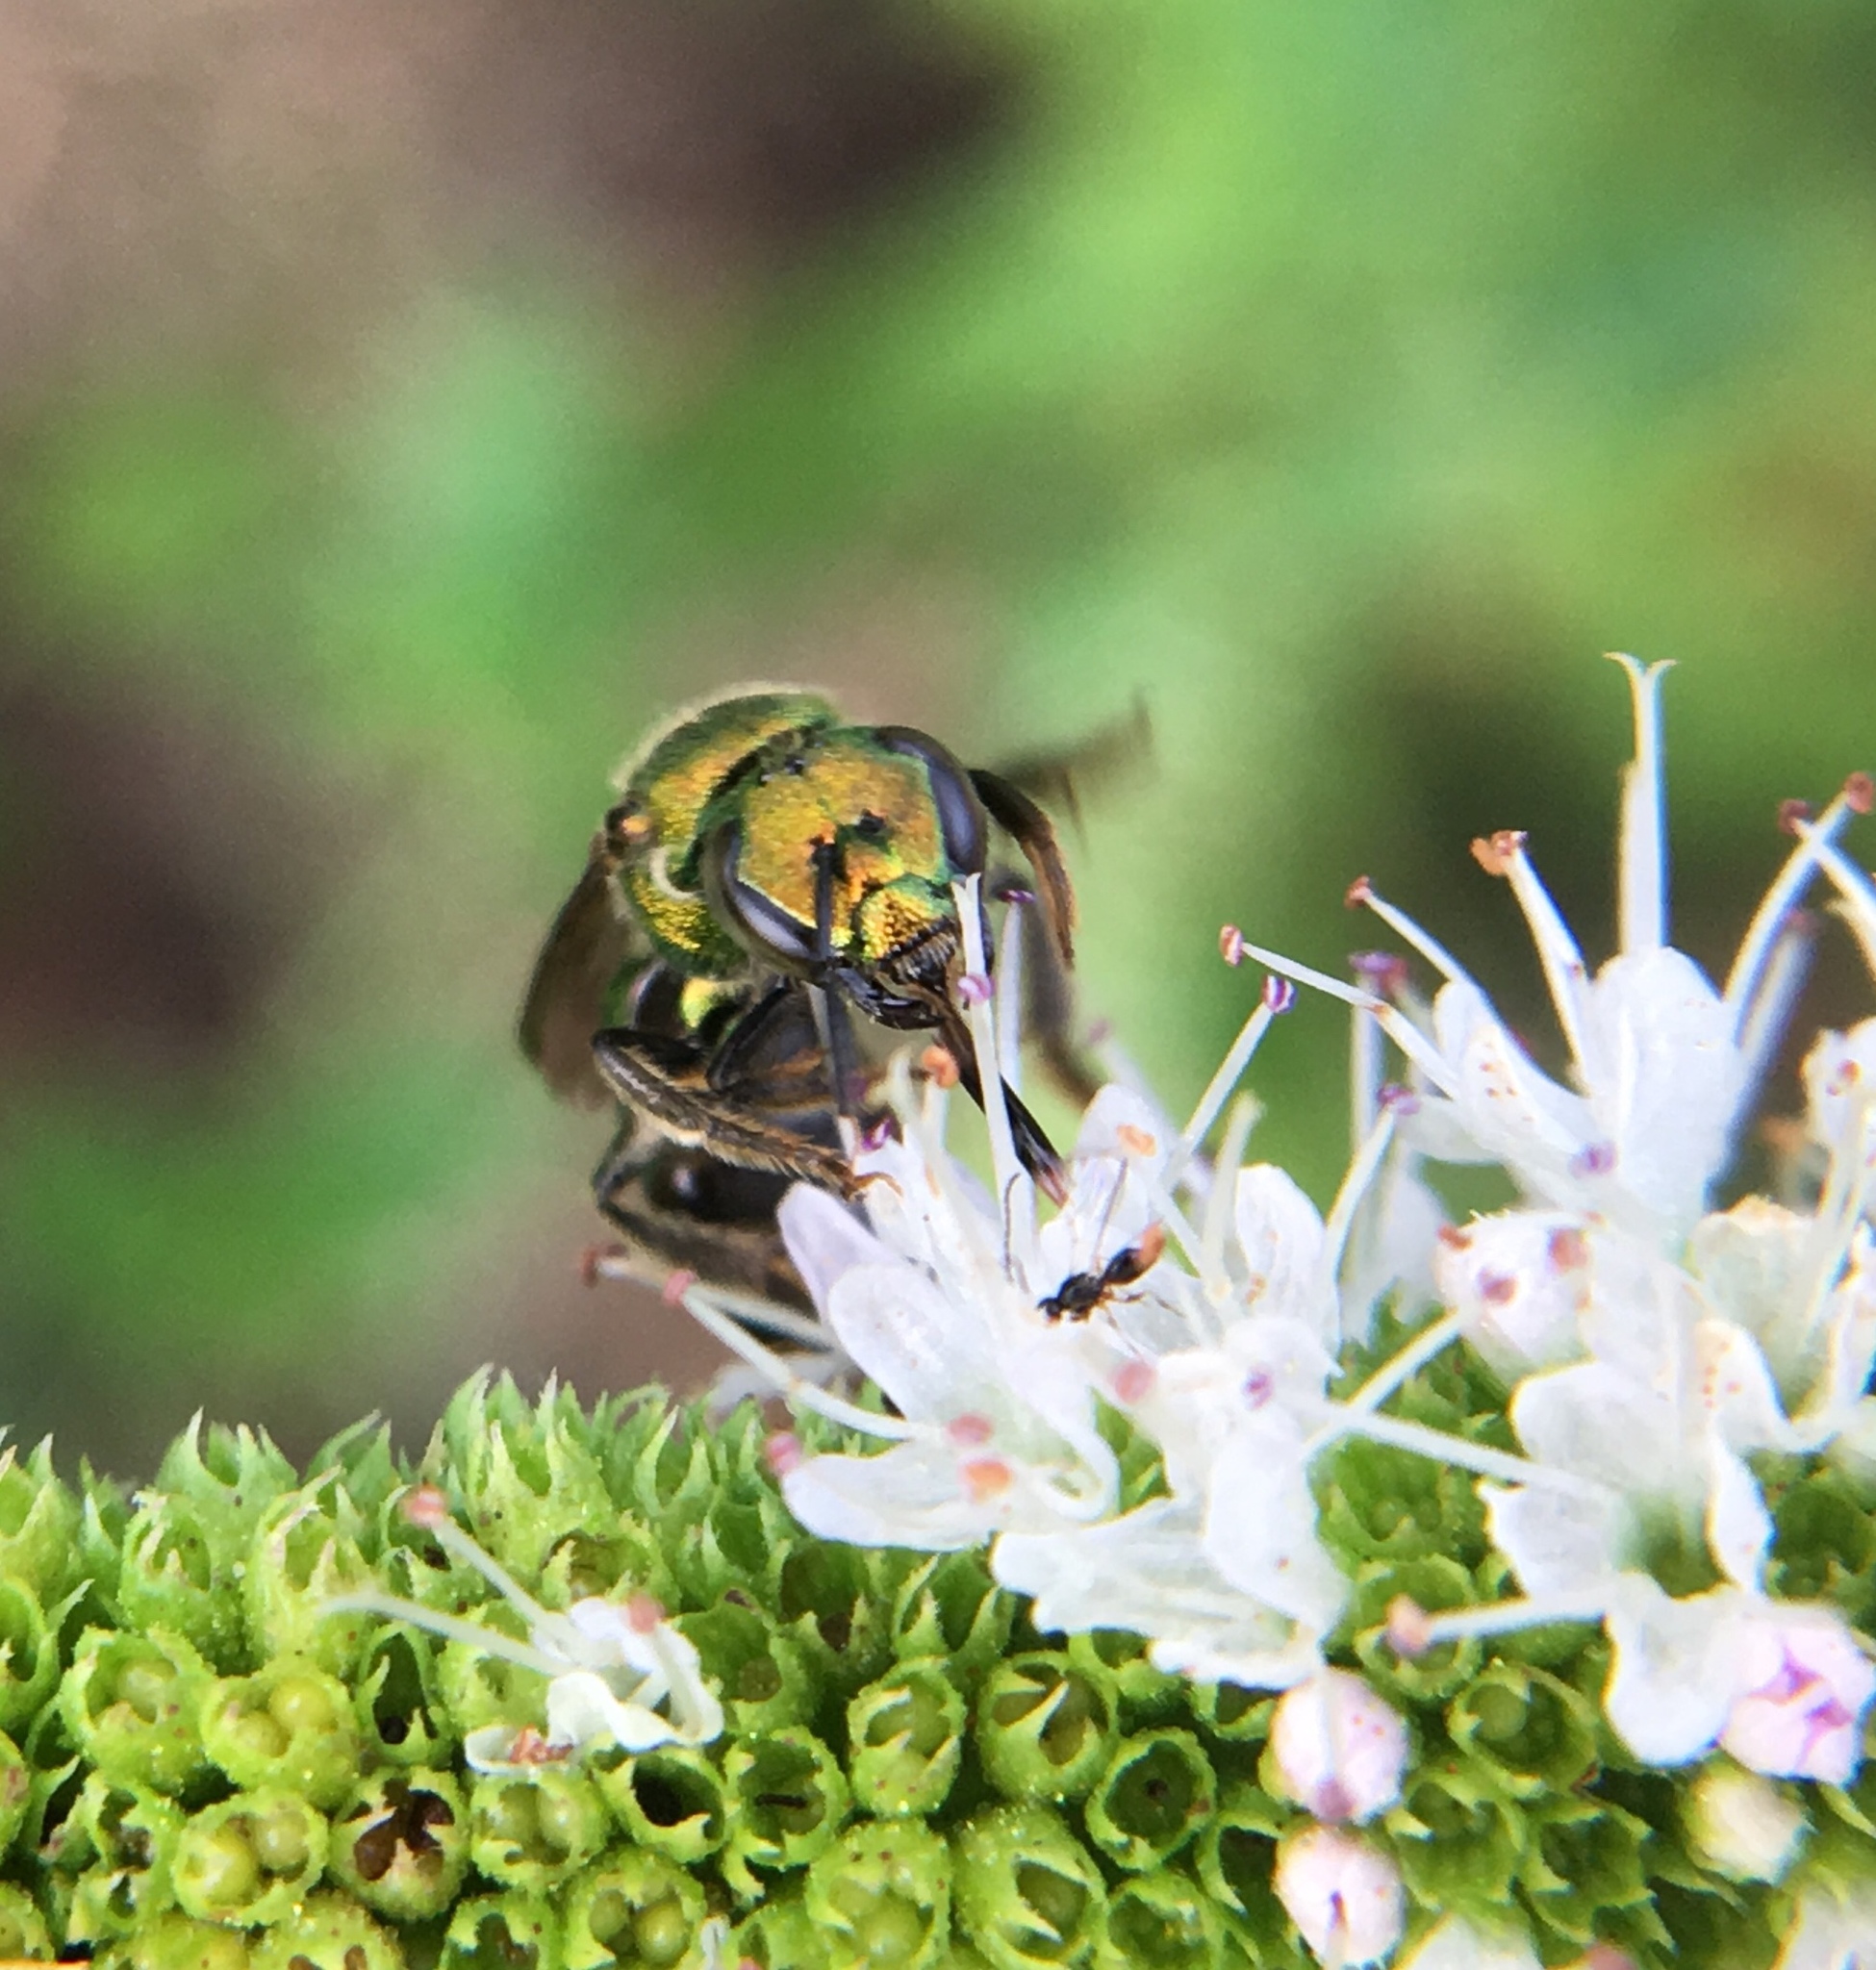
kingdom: Animalia
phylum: Arthropoda
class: Insecta
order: Hymenoptera
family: Halictidae
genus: Augochlora
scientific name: Augochlora pura
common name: Pure green sweat bee
